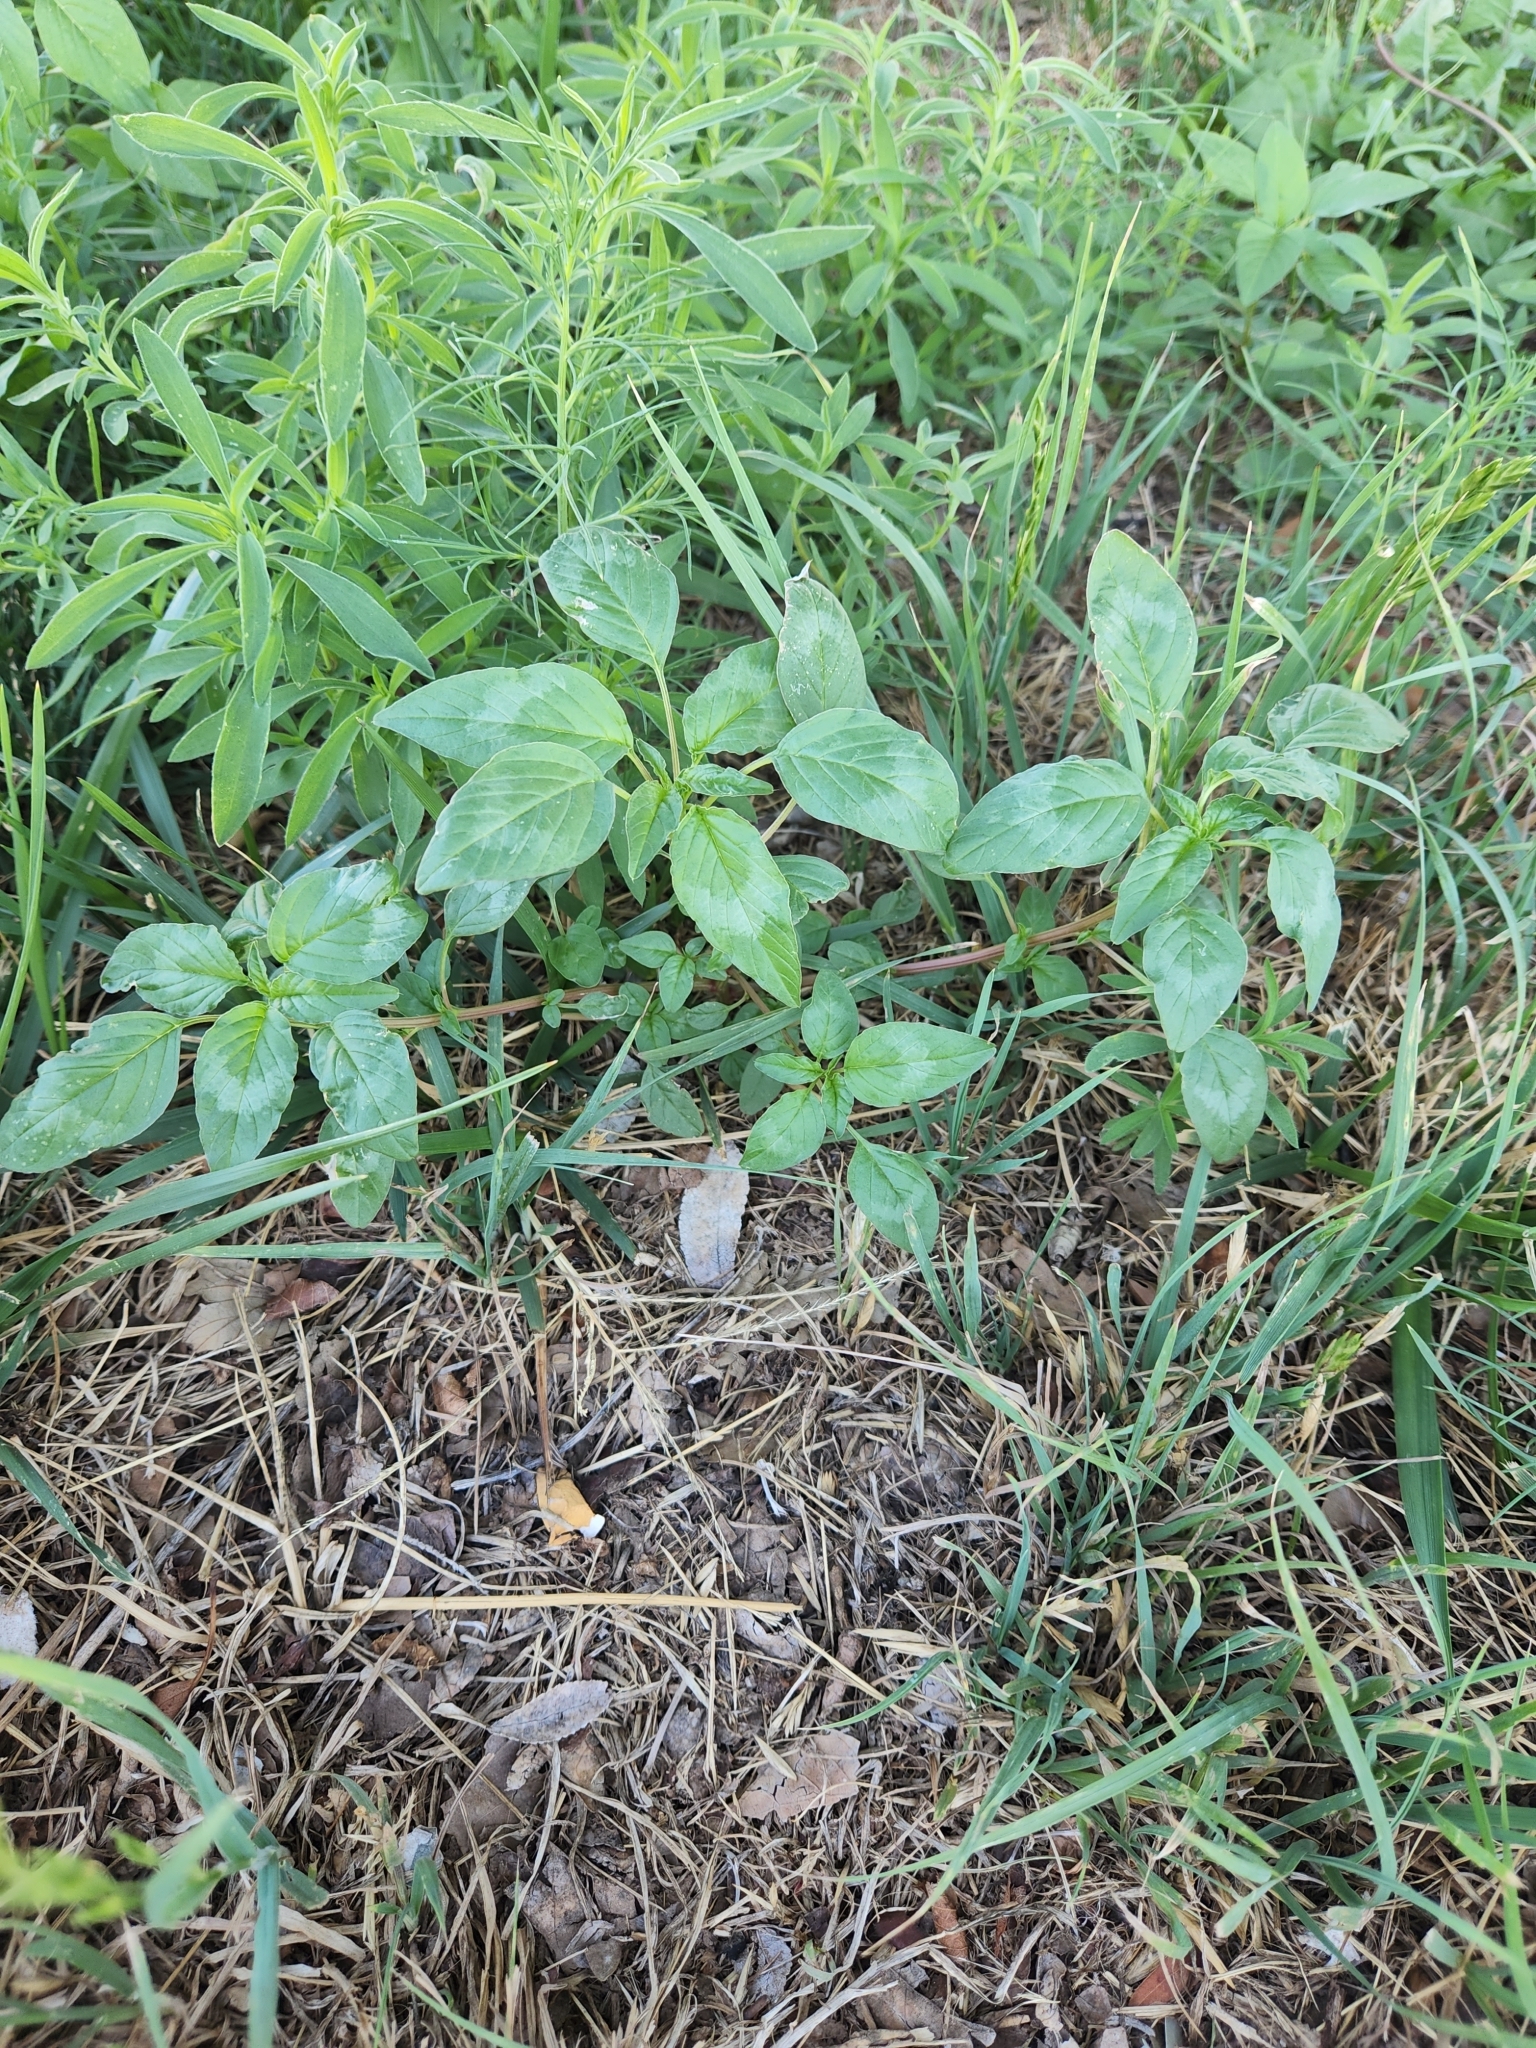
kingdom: Plantae
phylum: Tracheophyta
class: Magnoliopsida
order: Caryophyllales
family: Amaranthaceae
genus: Amaranthus
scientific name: Amaranthus palmeri
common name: Dioecious amaranth
